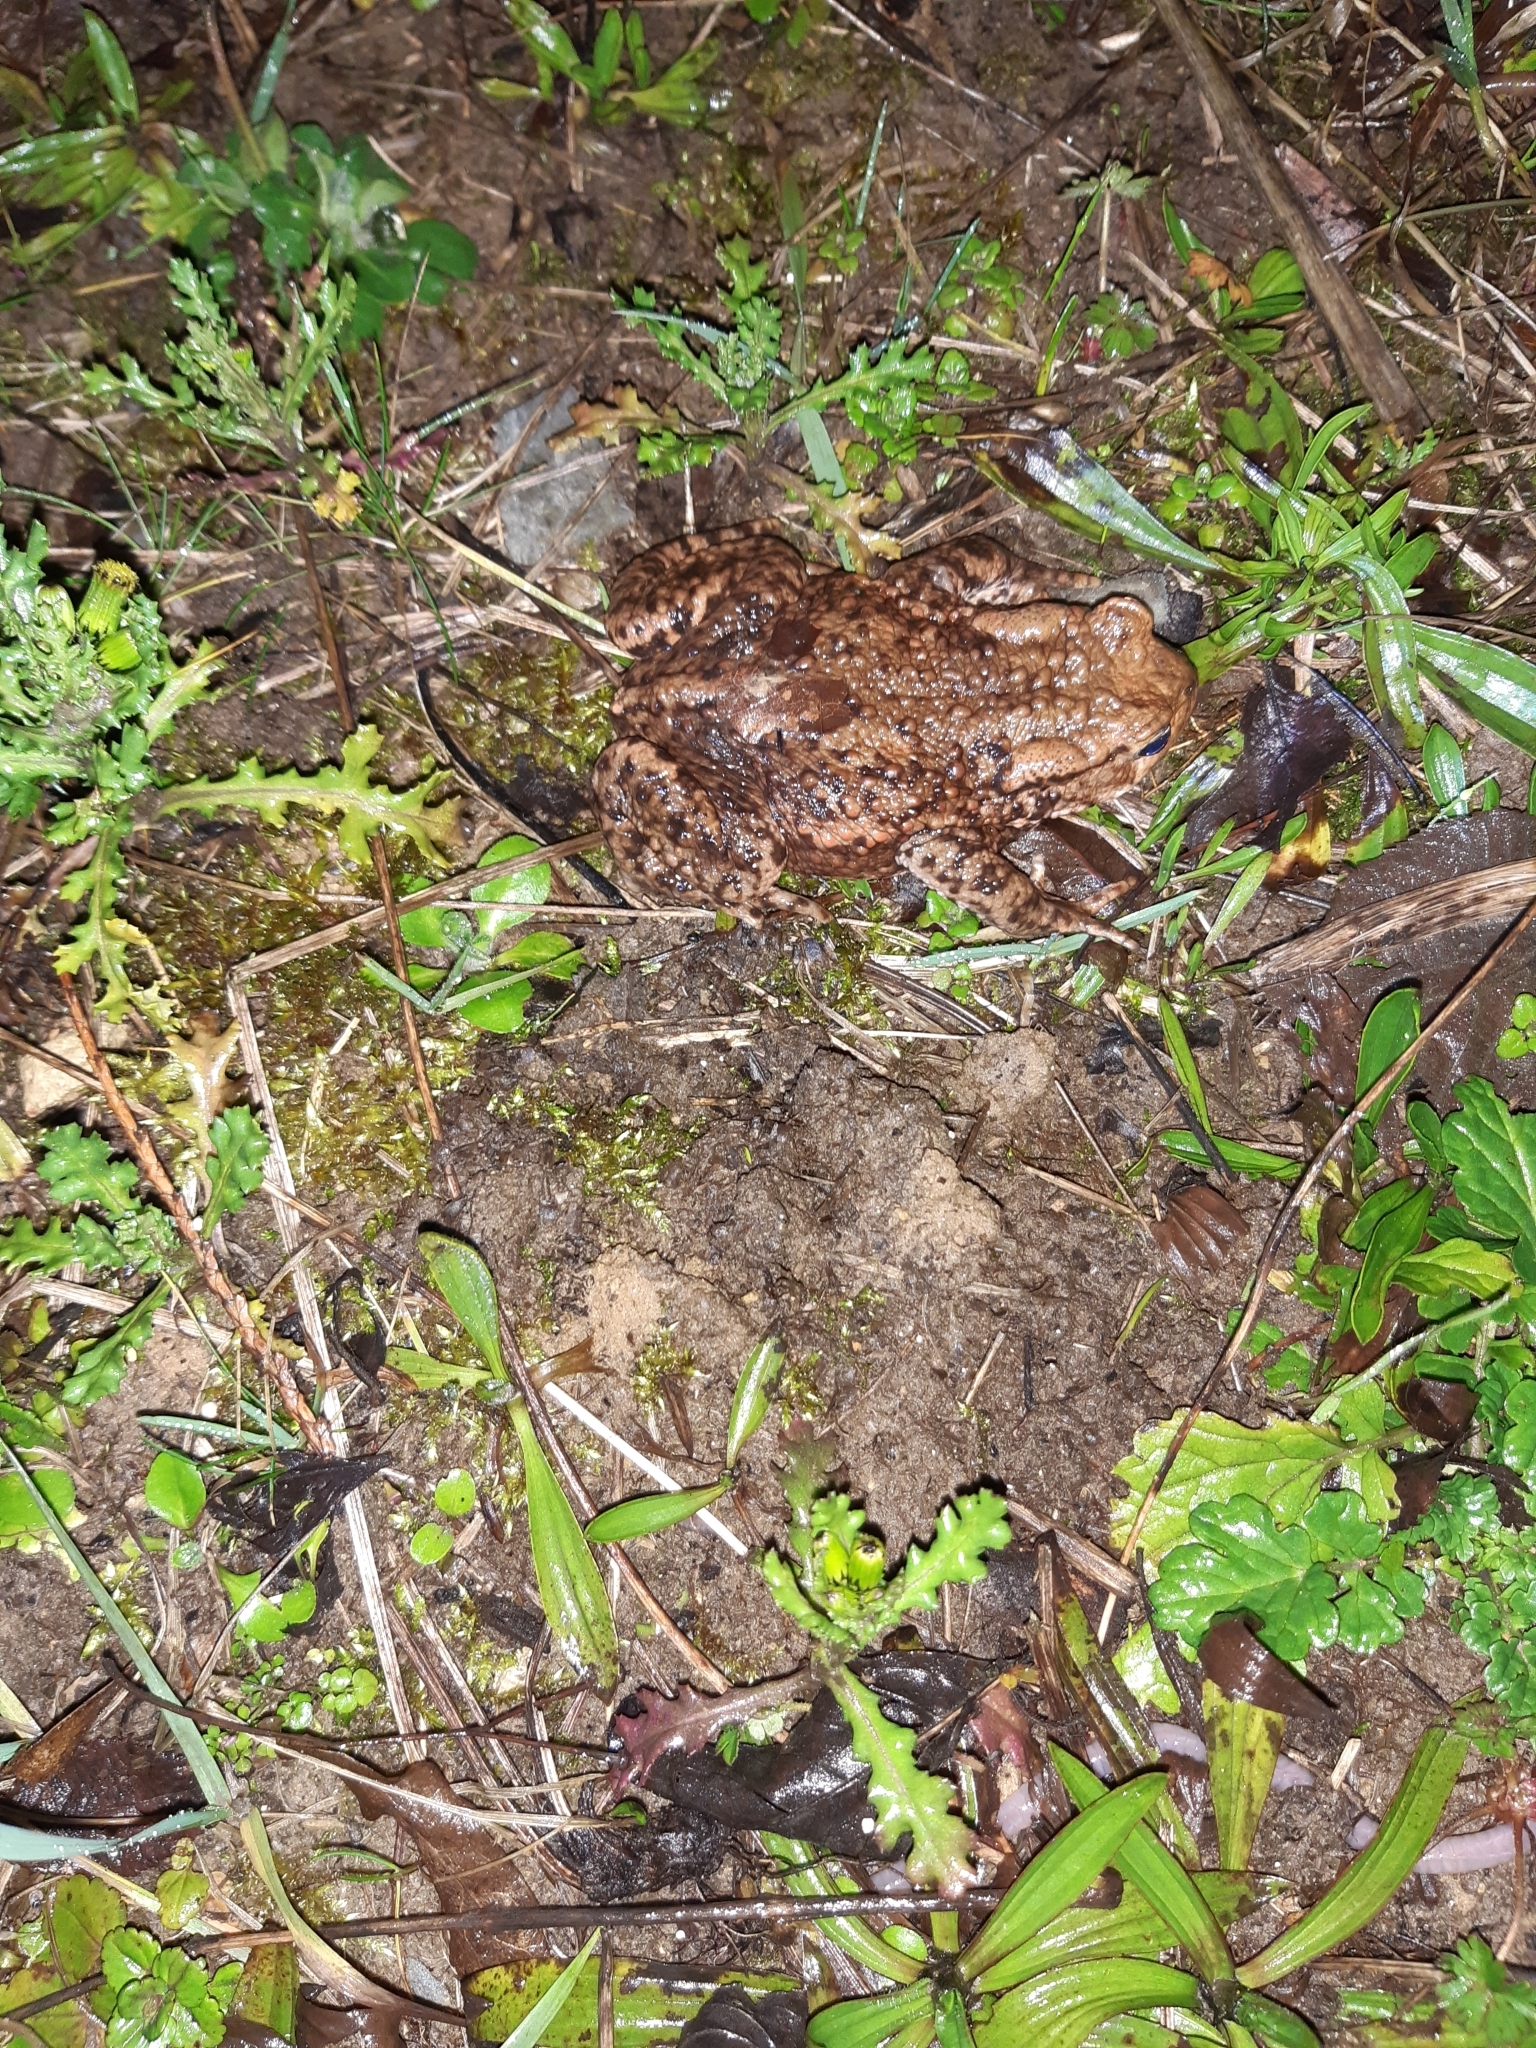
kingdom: Animalia
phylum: Chordata
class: Amphibia
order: Anura
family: Bufonidae
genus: Bufo
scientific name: Bufo bufo
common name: Common toad
